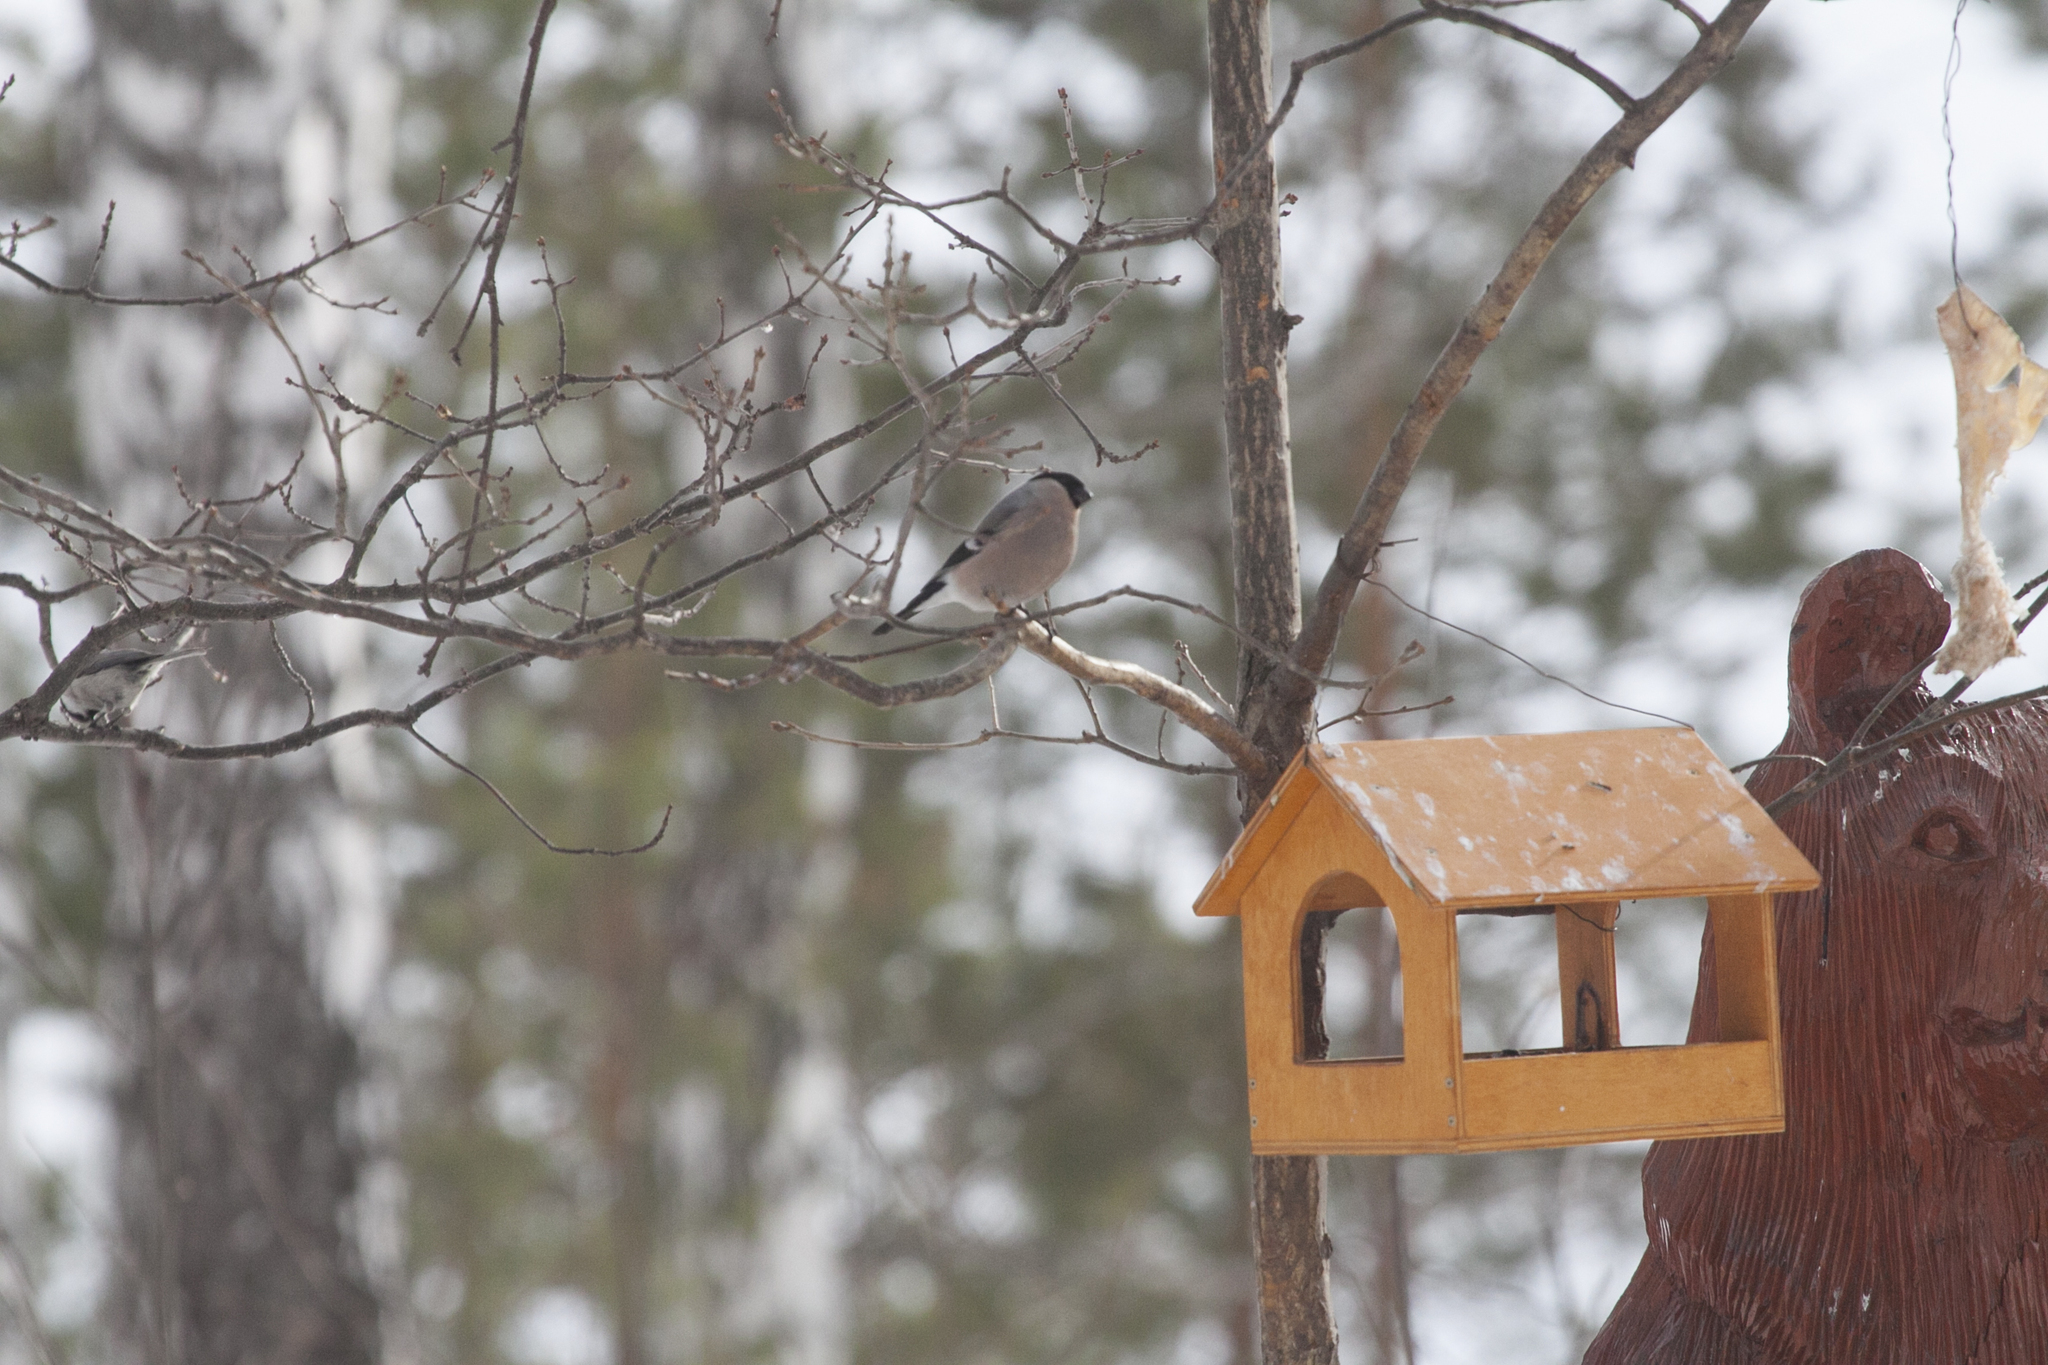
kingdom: Animalia
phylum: Chordata
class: Aves
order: Passeriformes
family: Fringillidae
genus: Pyrrhula
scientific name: Pyrrhula pyrrhula
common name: Eurasian bullfinch
